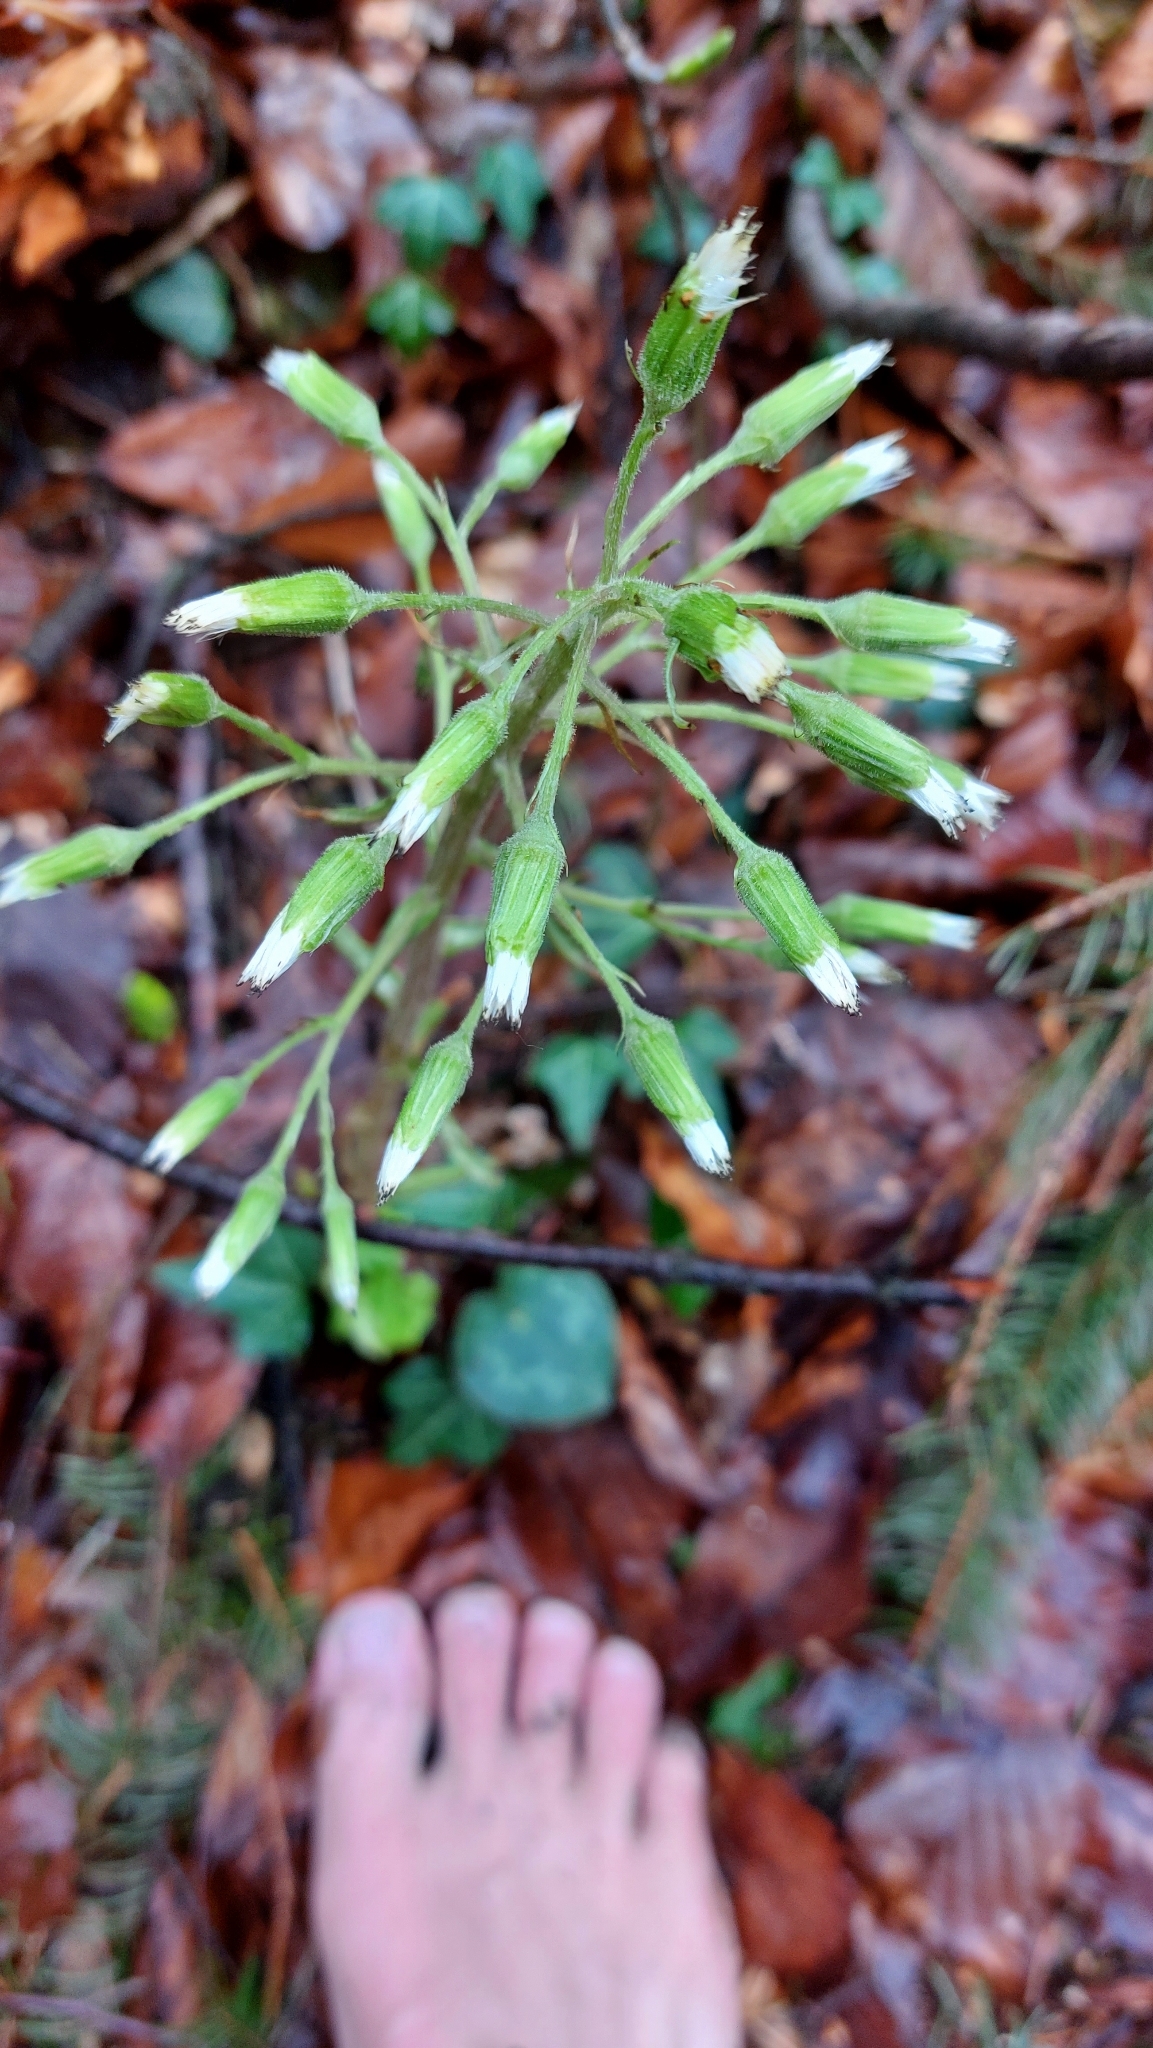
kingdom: Plantae
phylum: Tracheophyta
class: Magnoliopsida
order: Asterales
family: Asteraceae
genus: Petasites
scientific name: Petasites albus
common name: White butterbur
